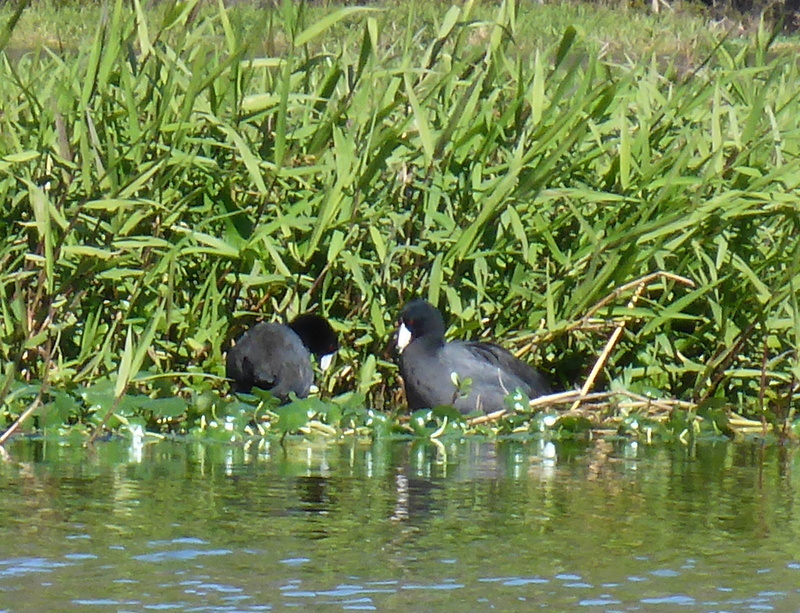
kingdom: Animalia
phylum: Chordata
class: Aves
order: Gruiformes
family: Rallidae
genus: Fulica
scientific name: Fulica americana
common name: American coot
